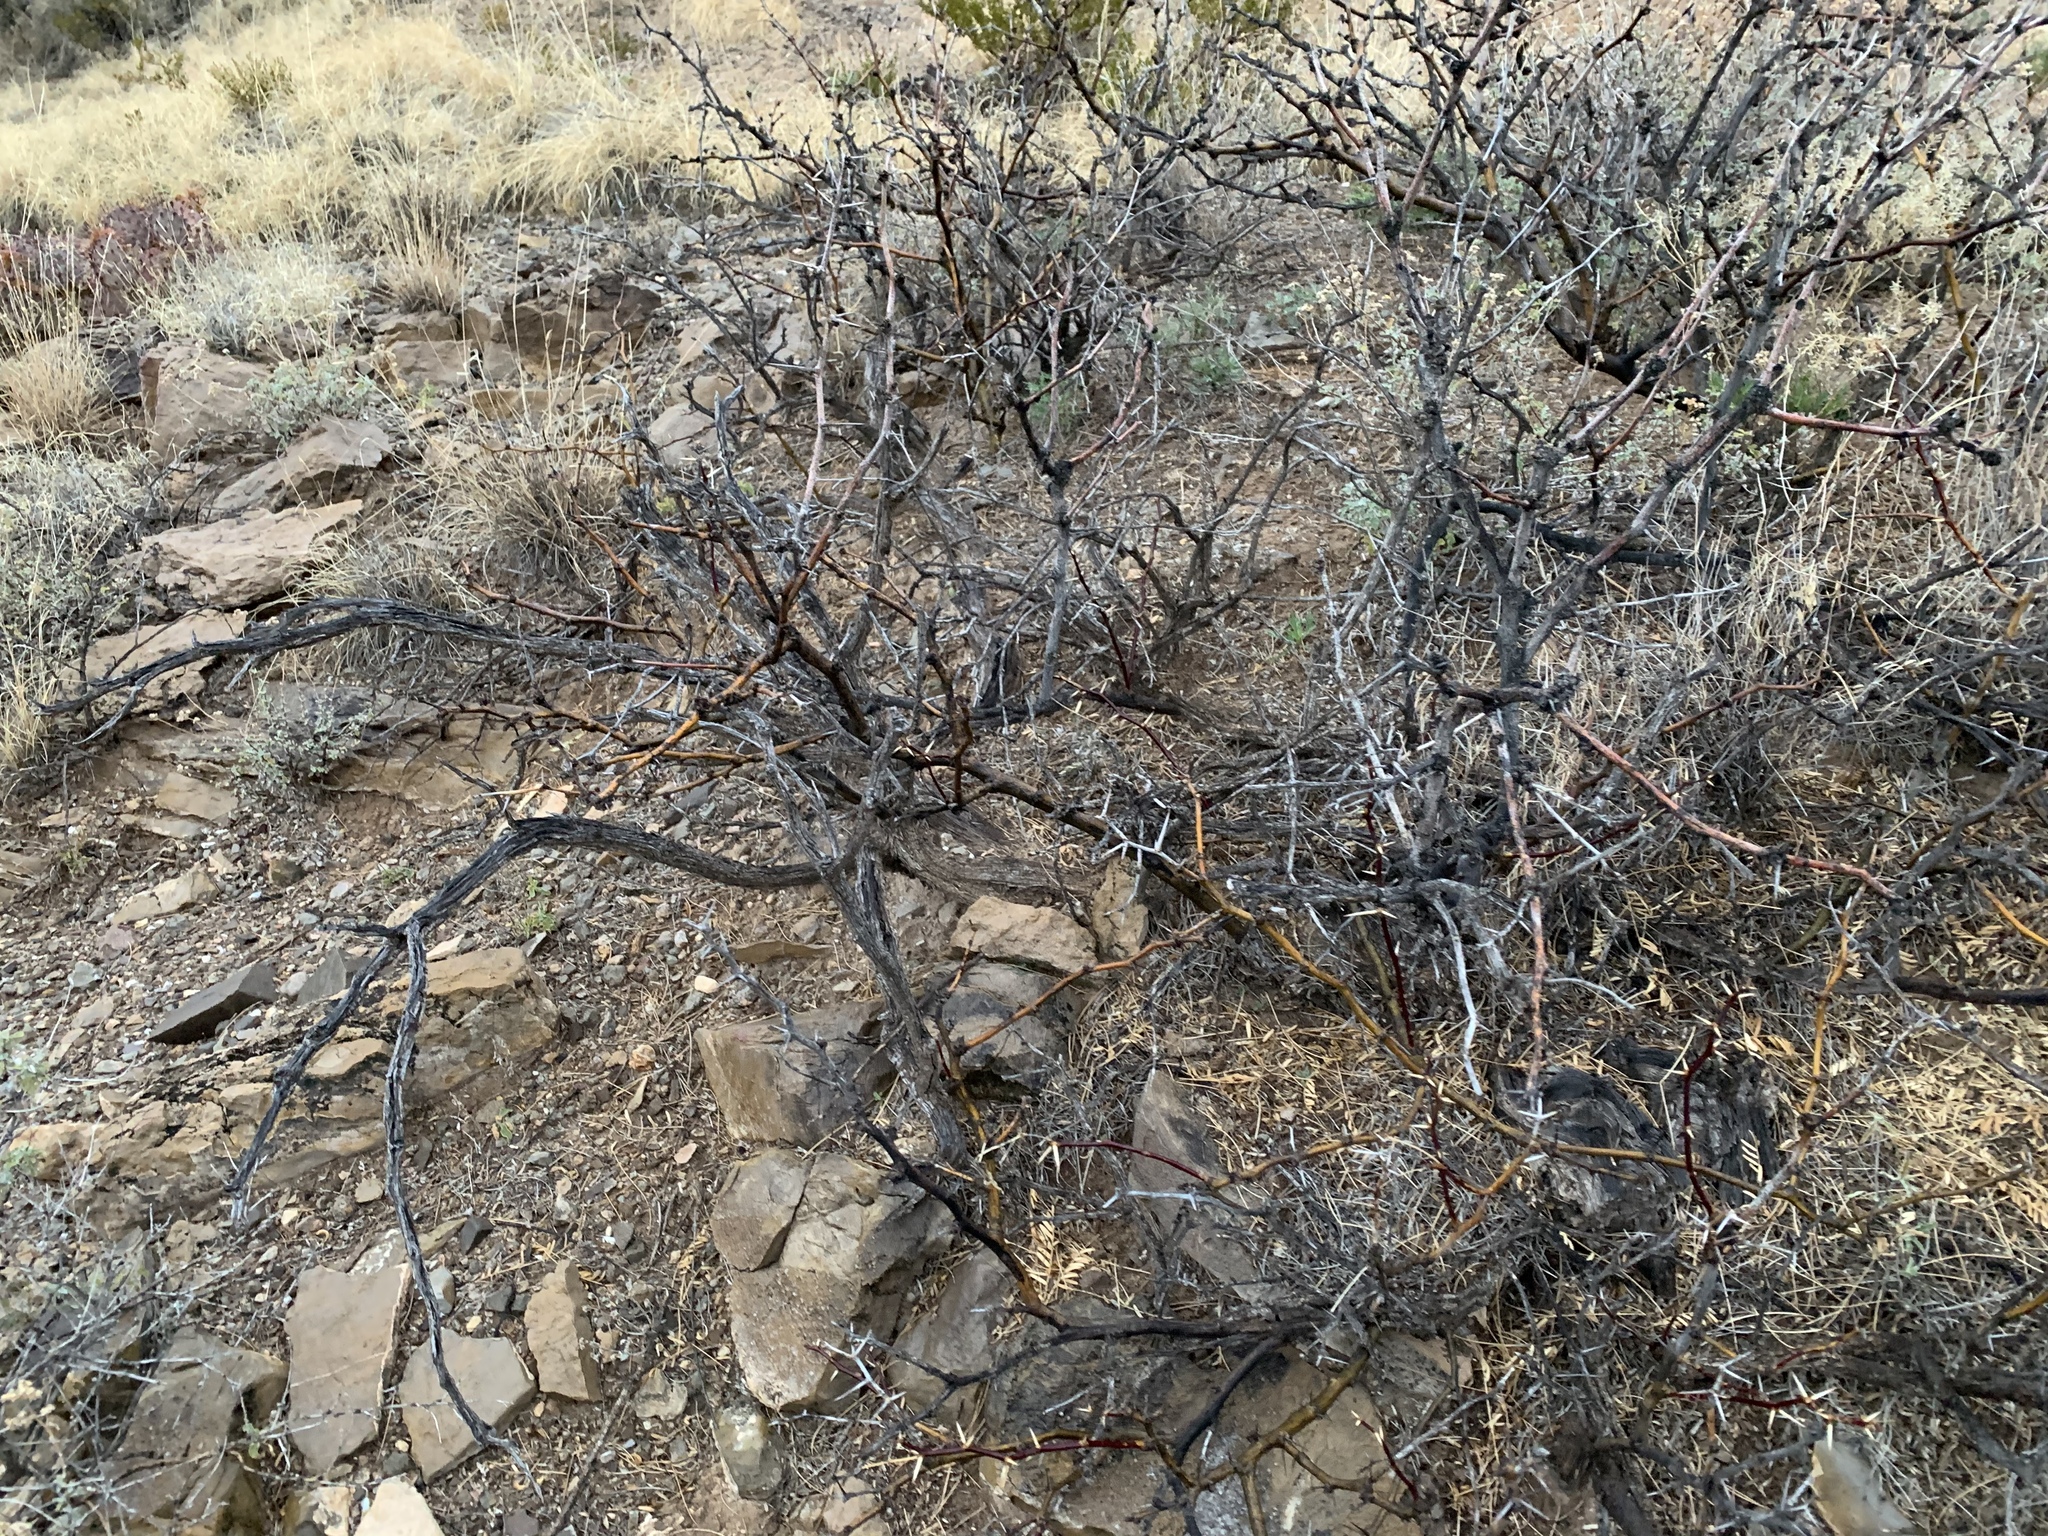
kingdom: Plantae
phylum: Tracheophyta
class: Magnoliopsida
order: Fabales
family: Fabaceae
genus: Prosopis
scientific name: Prosopis glandulosa
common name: Honey mesquite
